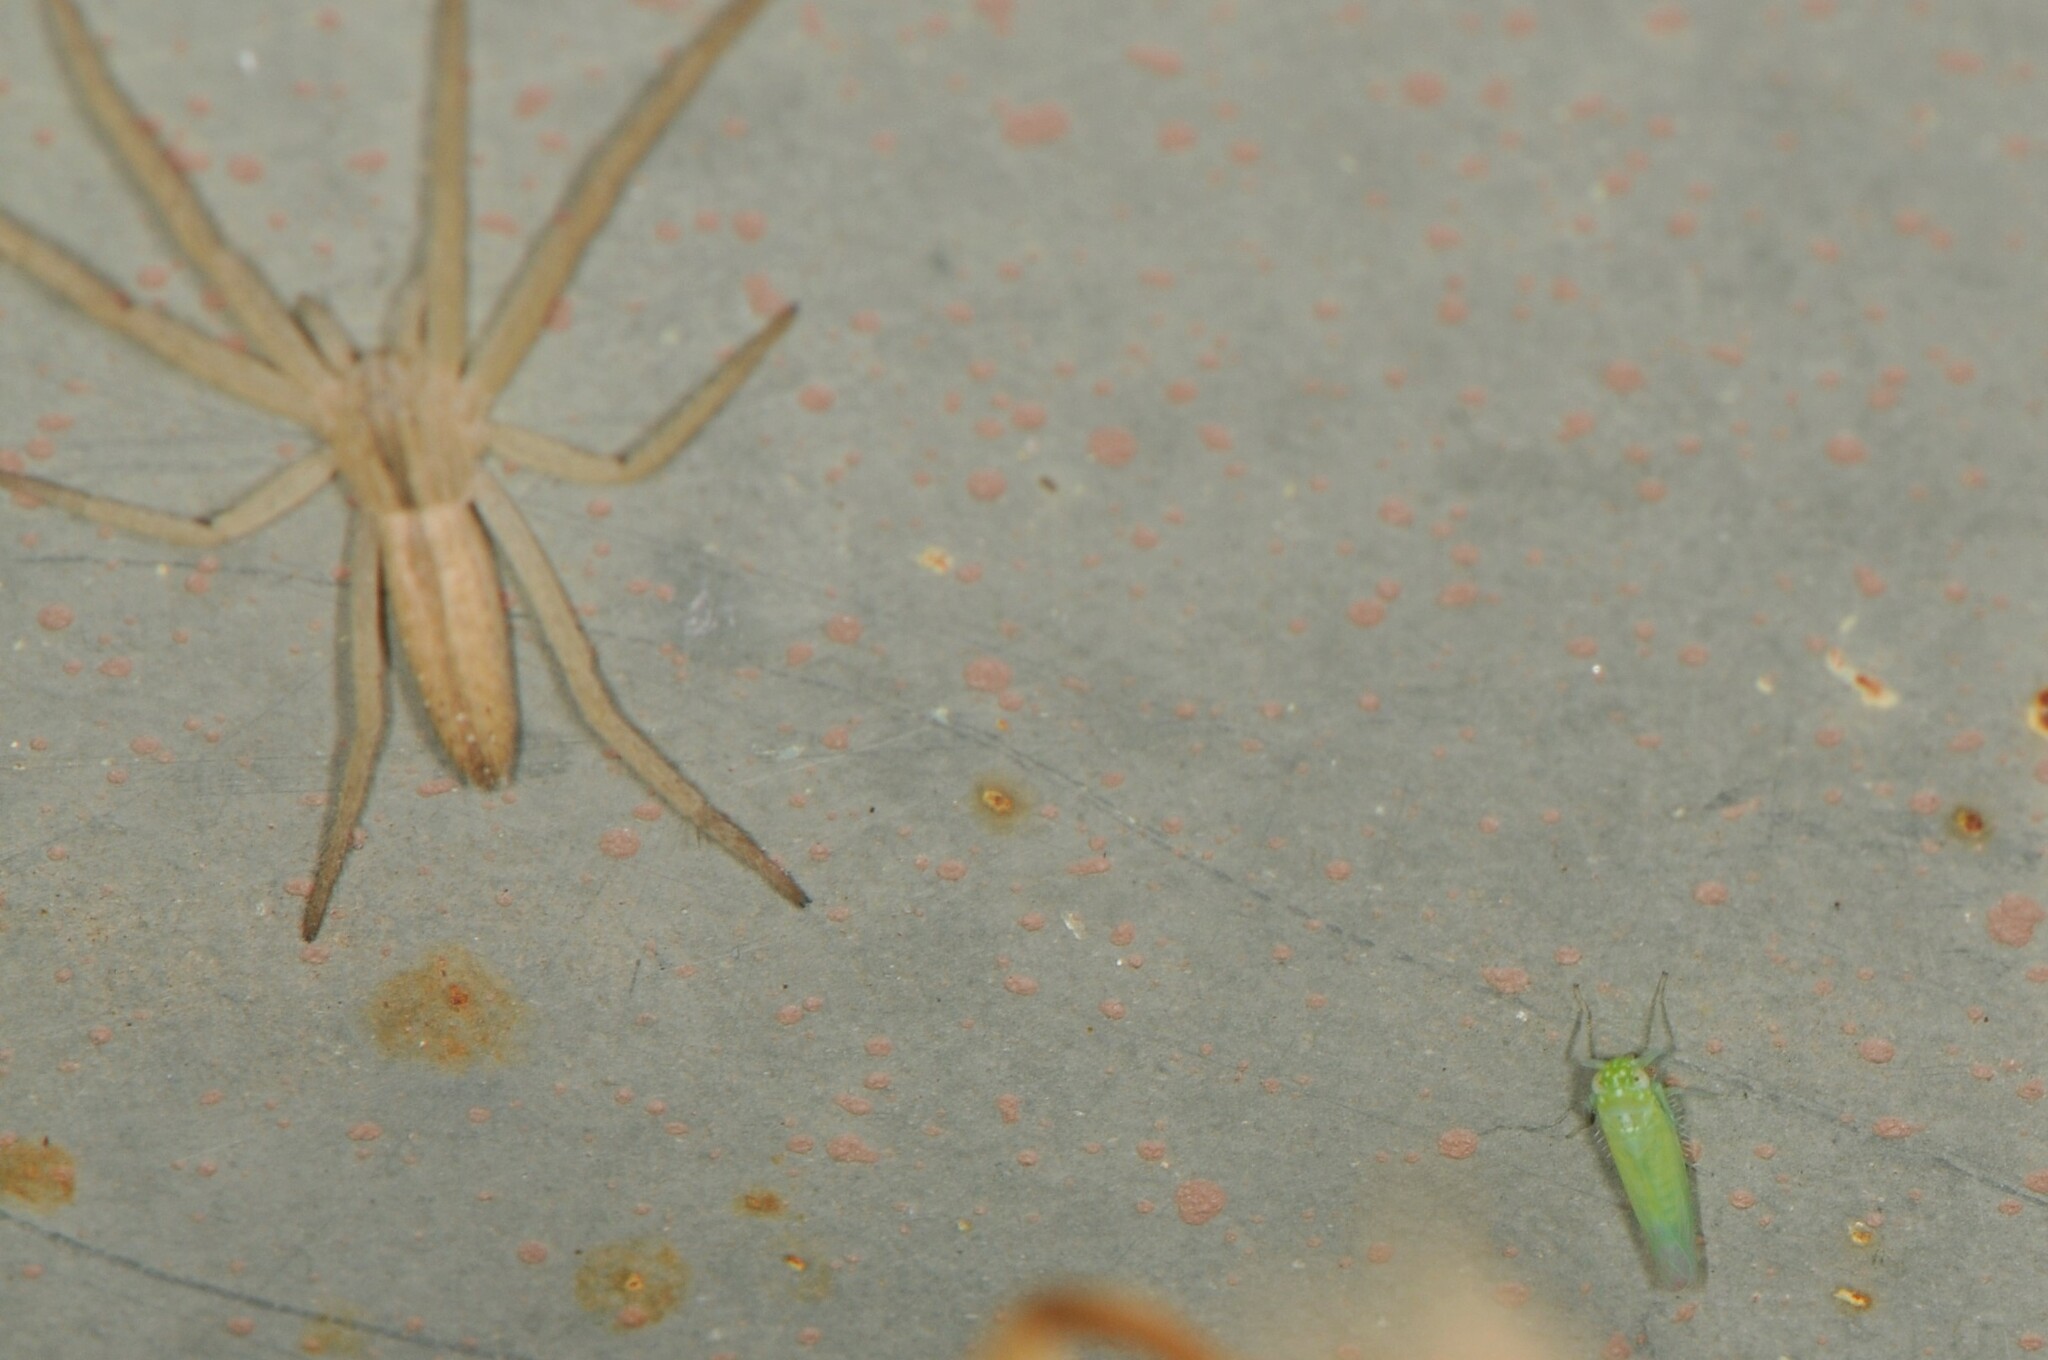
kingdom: Animalia
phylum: Arthropoda
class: Insecta
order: Hemiptera
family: Cicadellidae
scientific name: Cicadellidae
